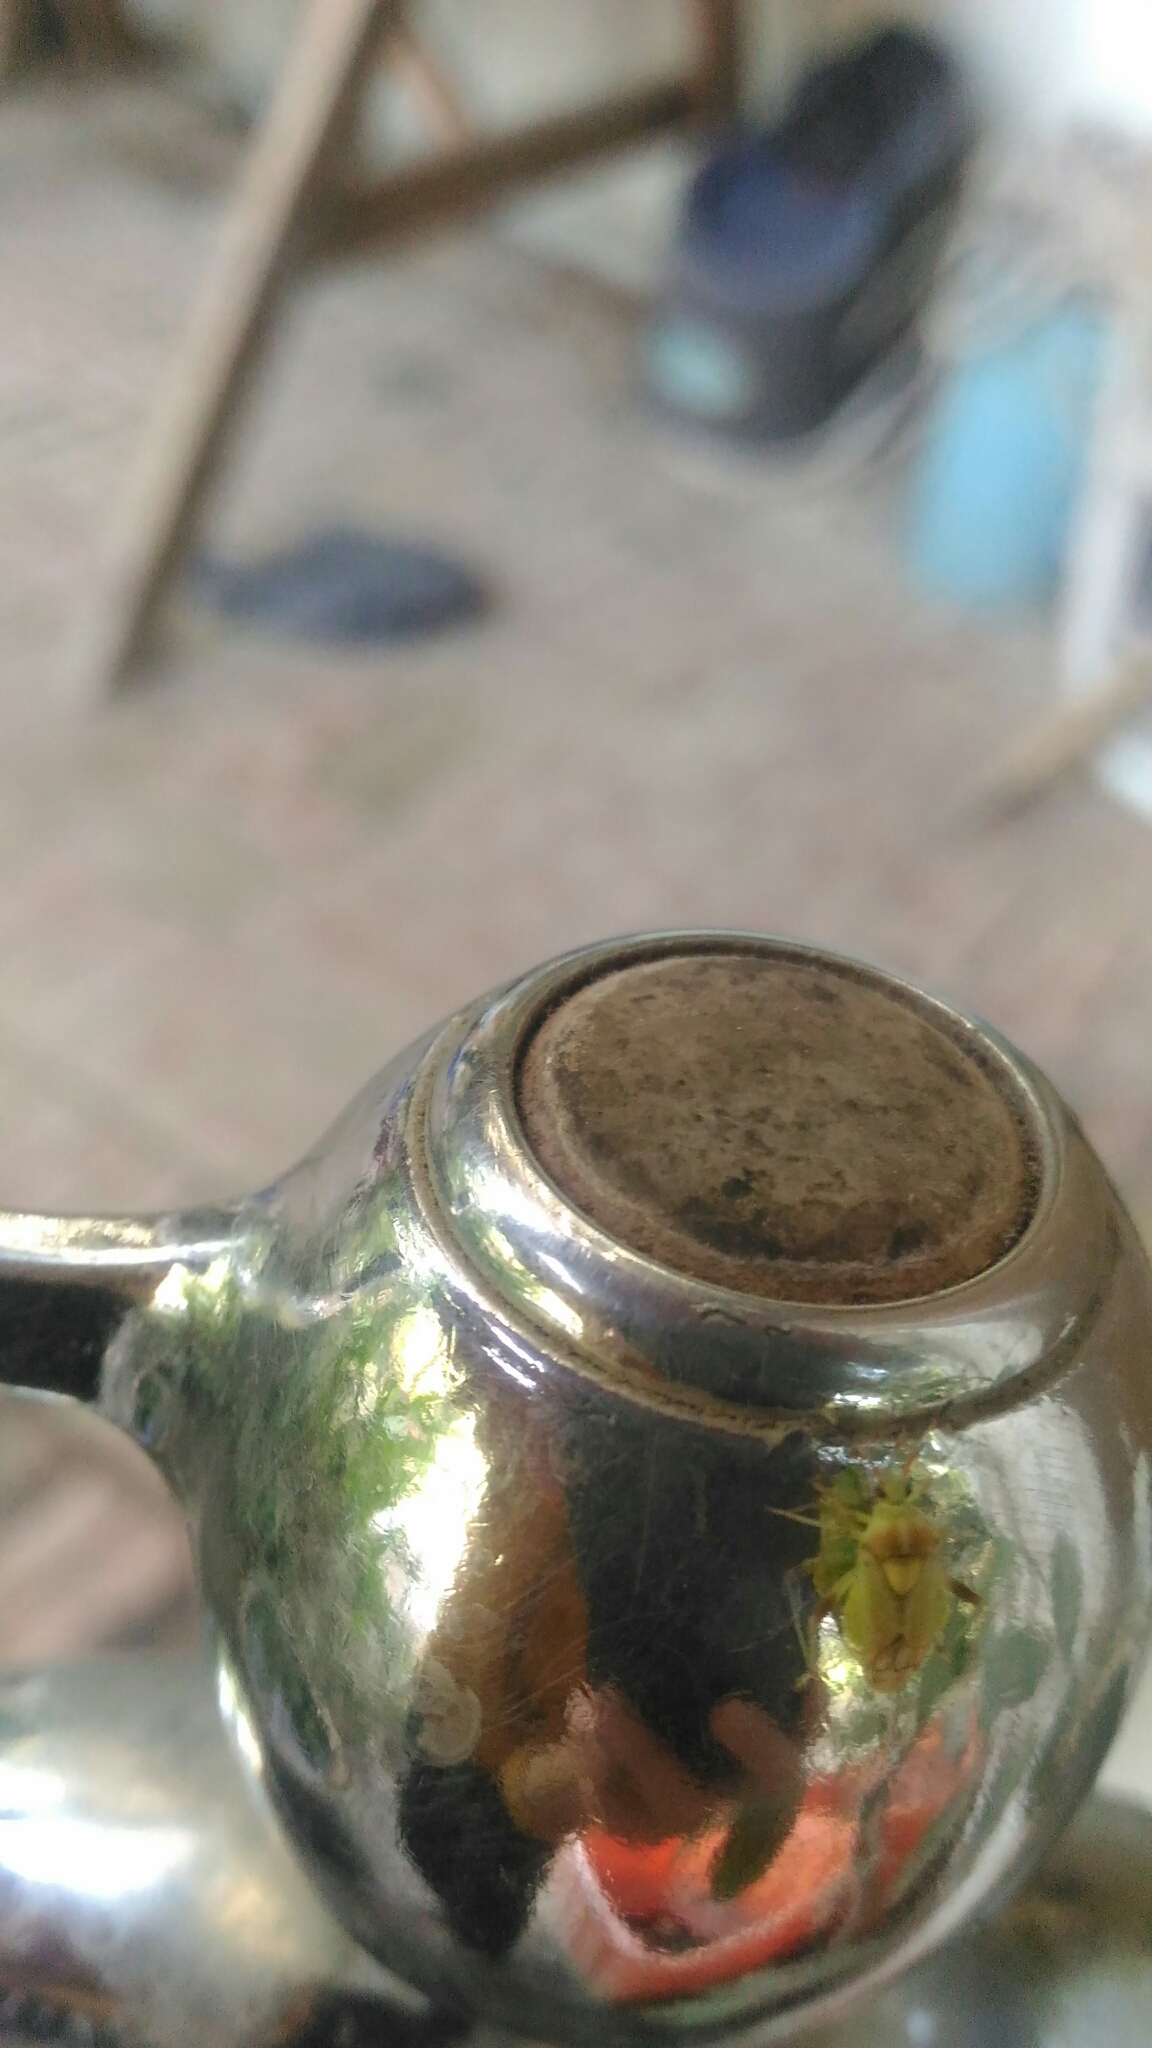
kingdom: Animalia
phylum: Arthropoda
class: Insecta
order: Hemiptera
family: Miridae
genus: Rhopalimiris
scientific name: Rhopalimiris gagai
